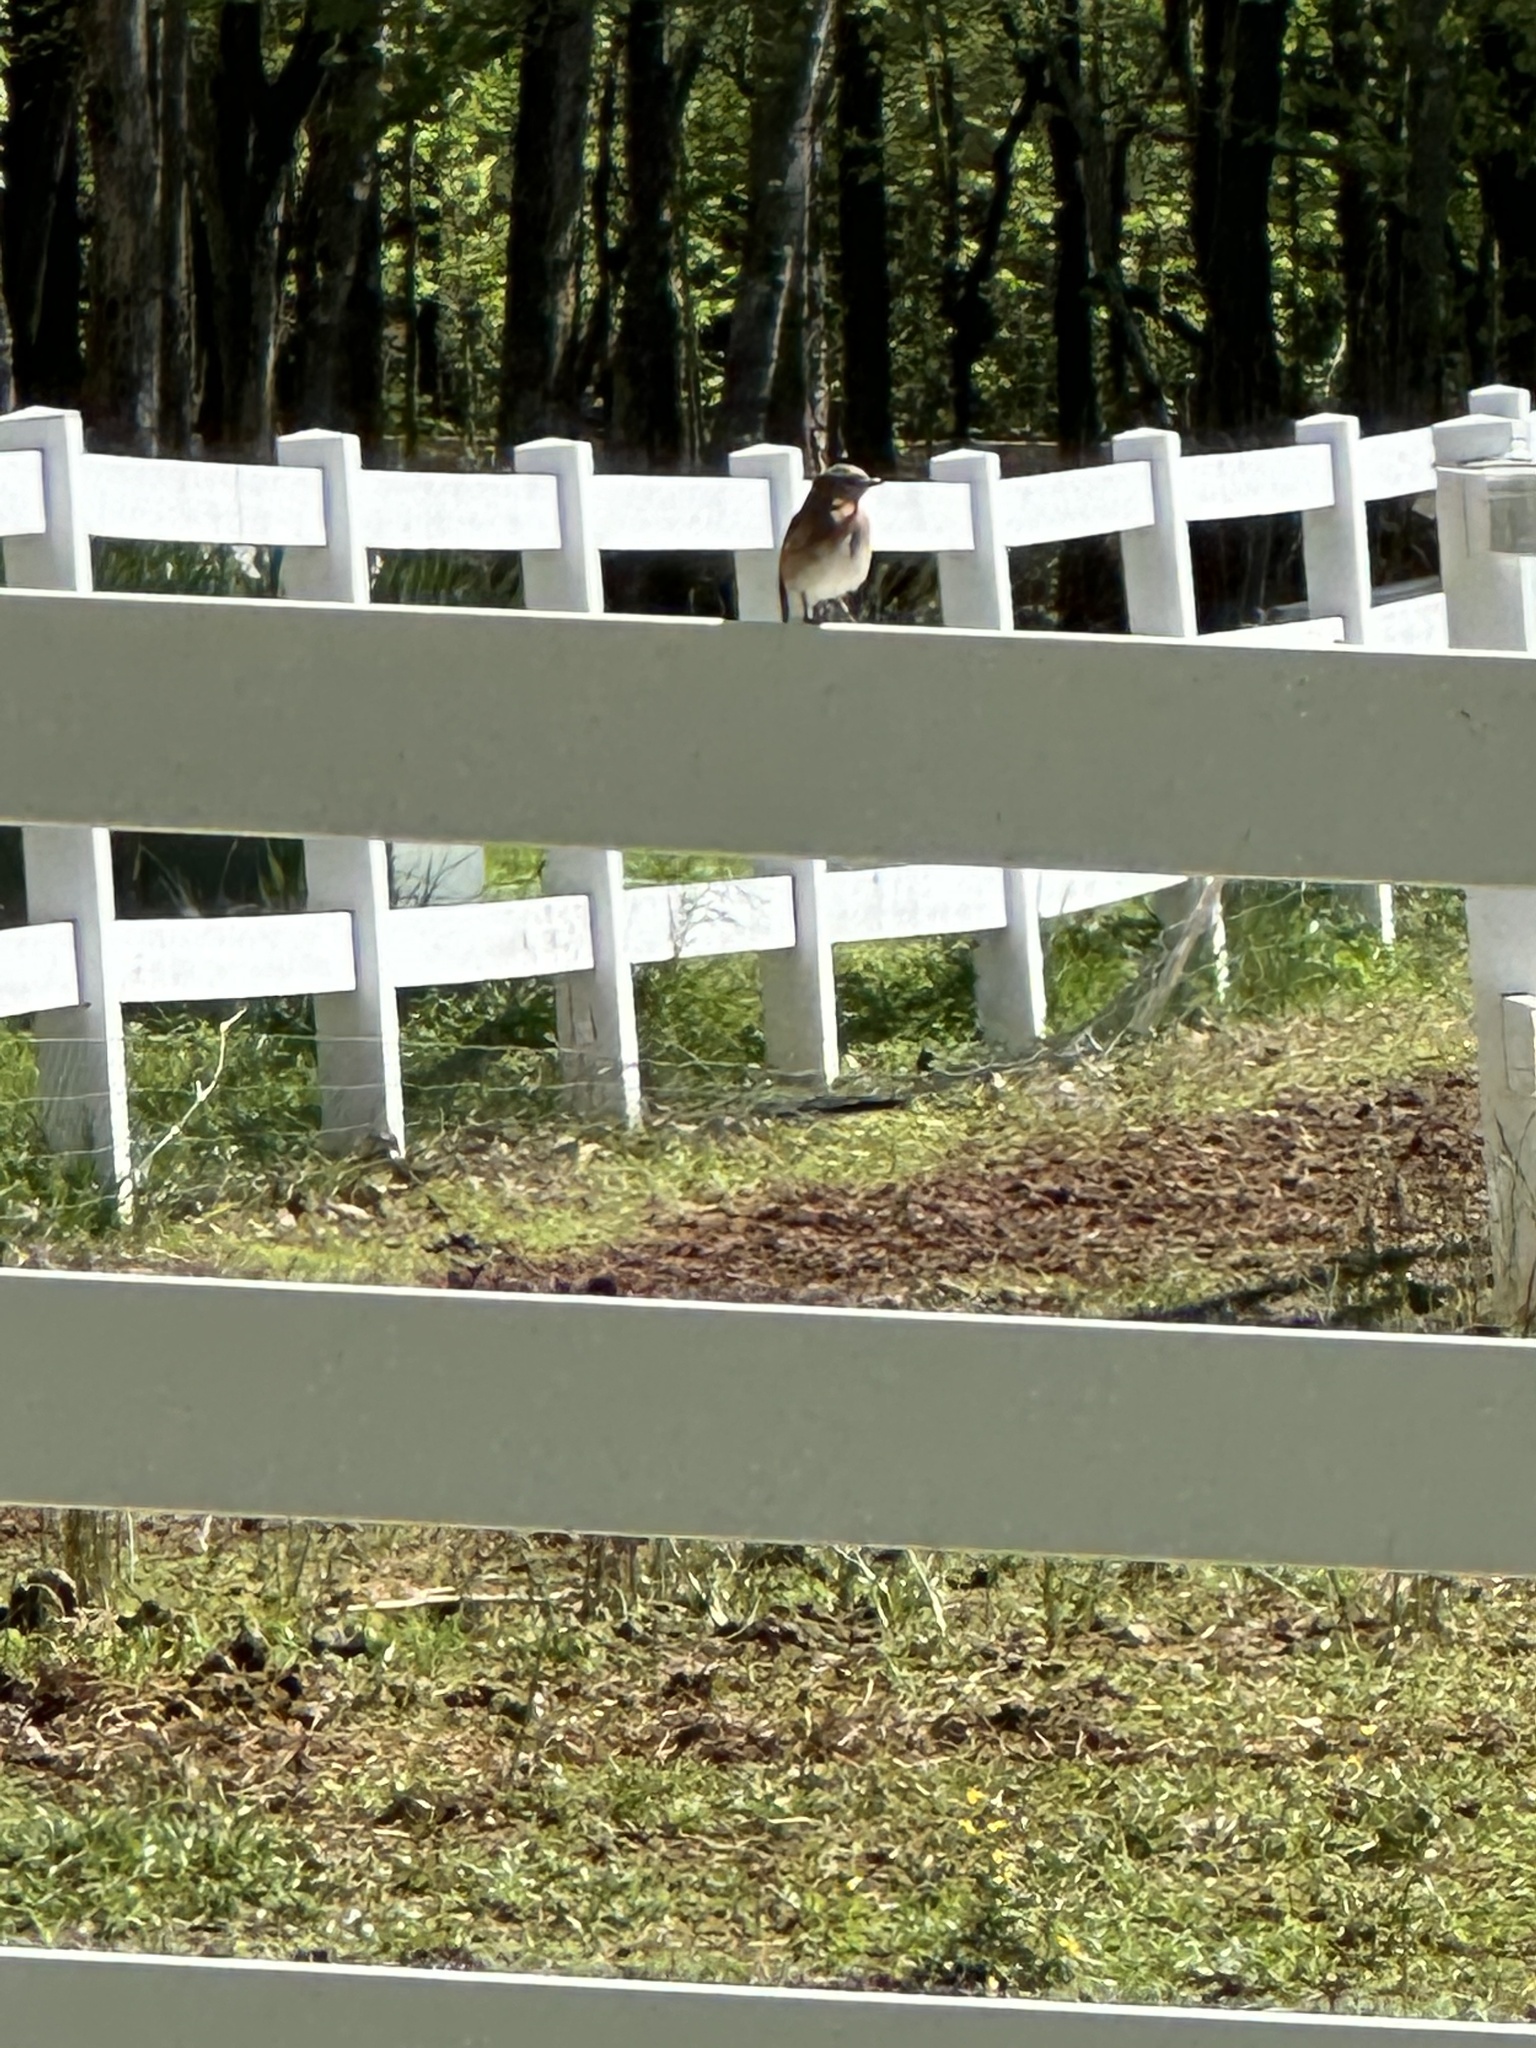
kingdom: Animalia
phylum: Chordata
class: Aves
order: Passeriformes
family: Turdidae
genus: Sialia
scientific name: Sialia sialis
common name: Eastern bluebird
